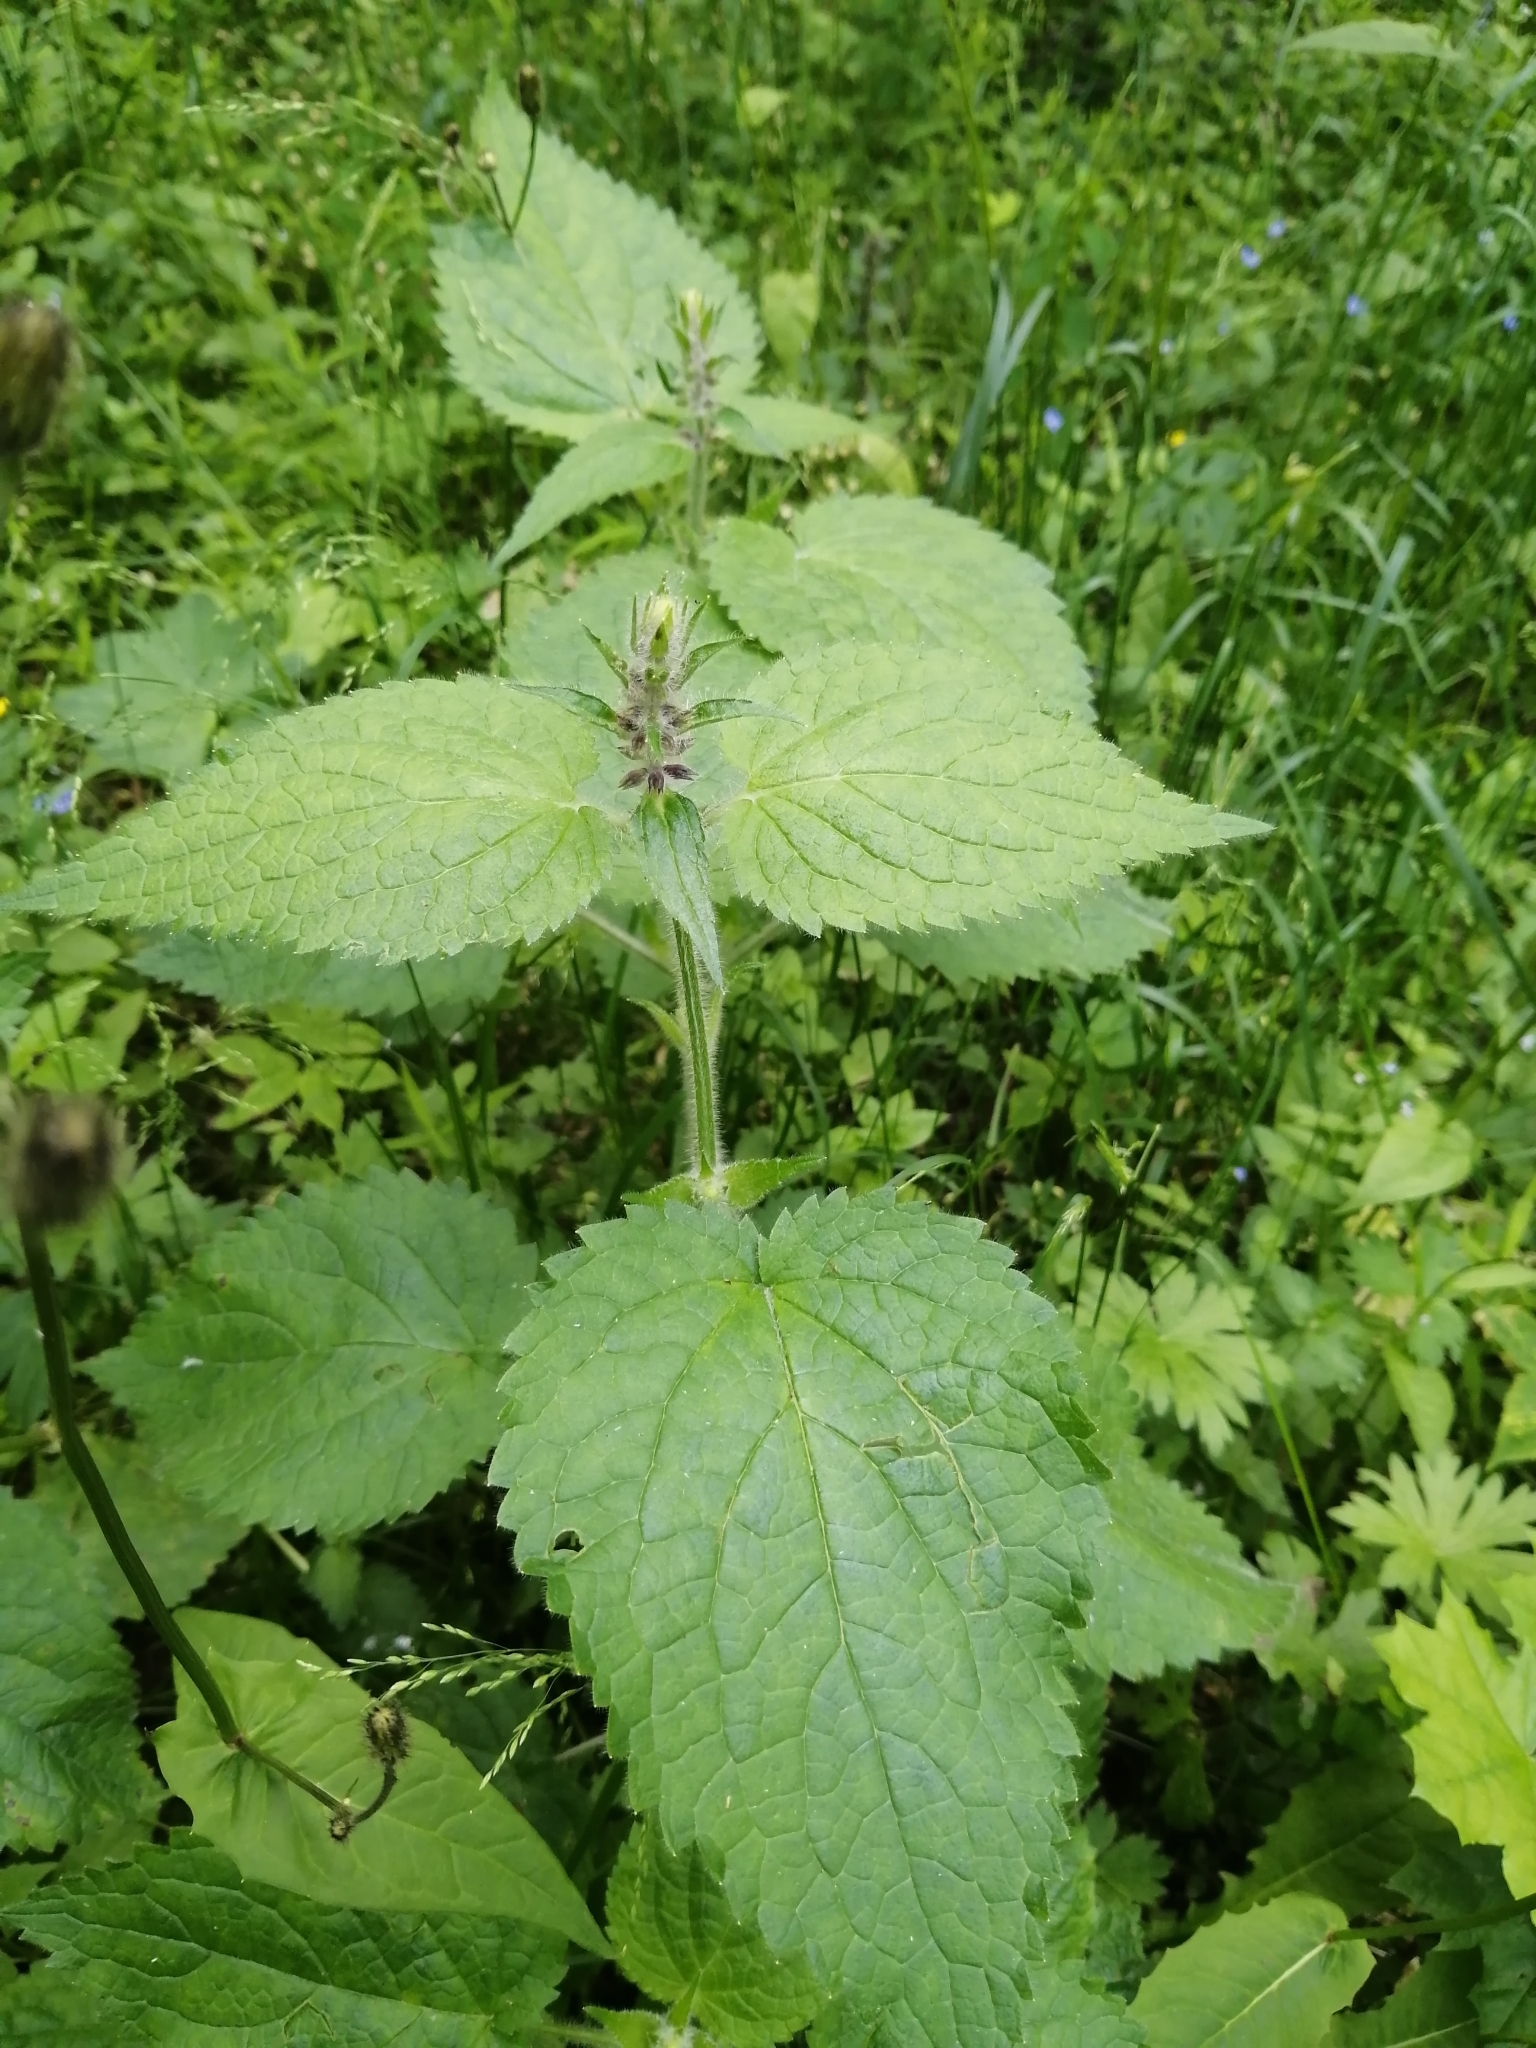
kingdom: Plantae
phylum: Tracheophyta
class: Magnoliopsida
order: Lamiales
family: Lamiaceae
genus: Stachys
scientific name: Stachys sylvatica
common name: Hedge woundwort
